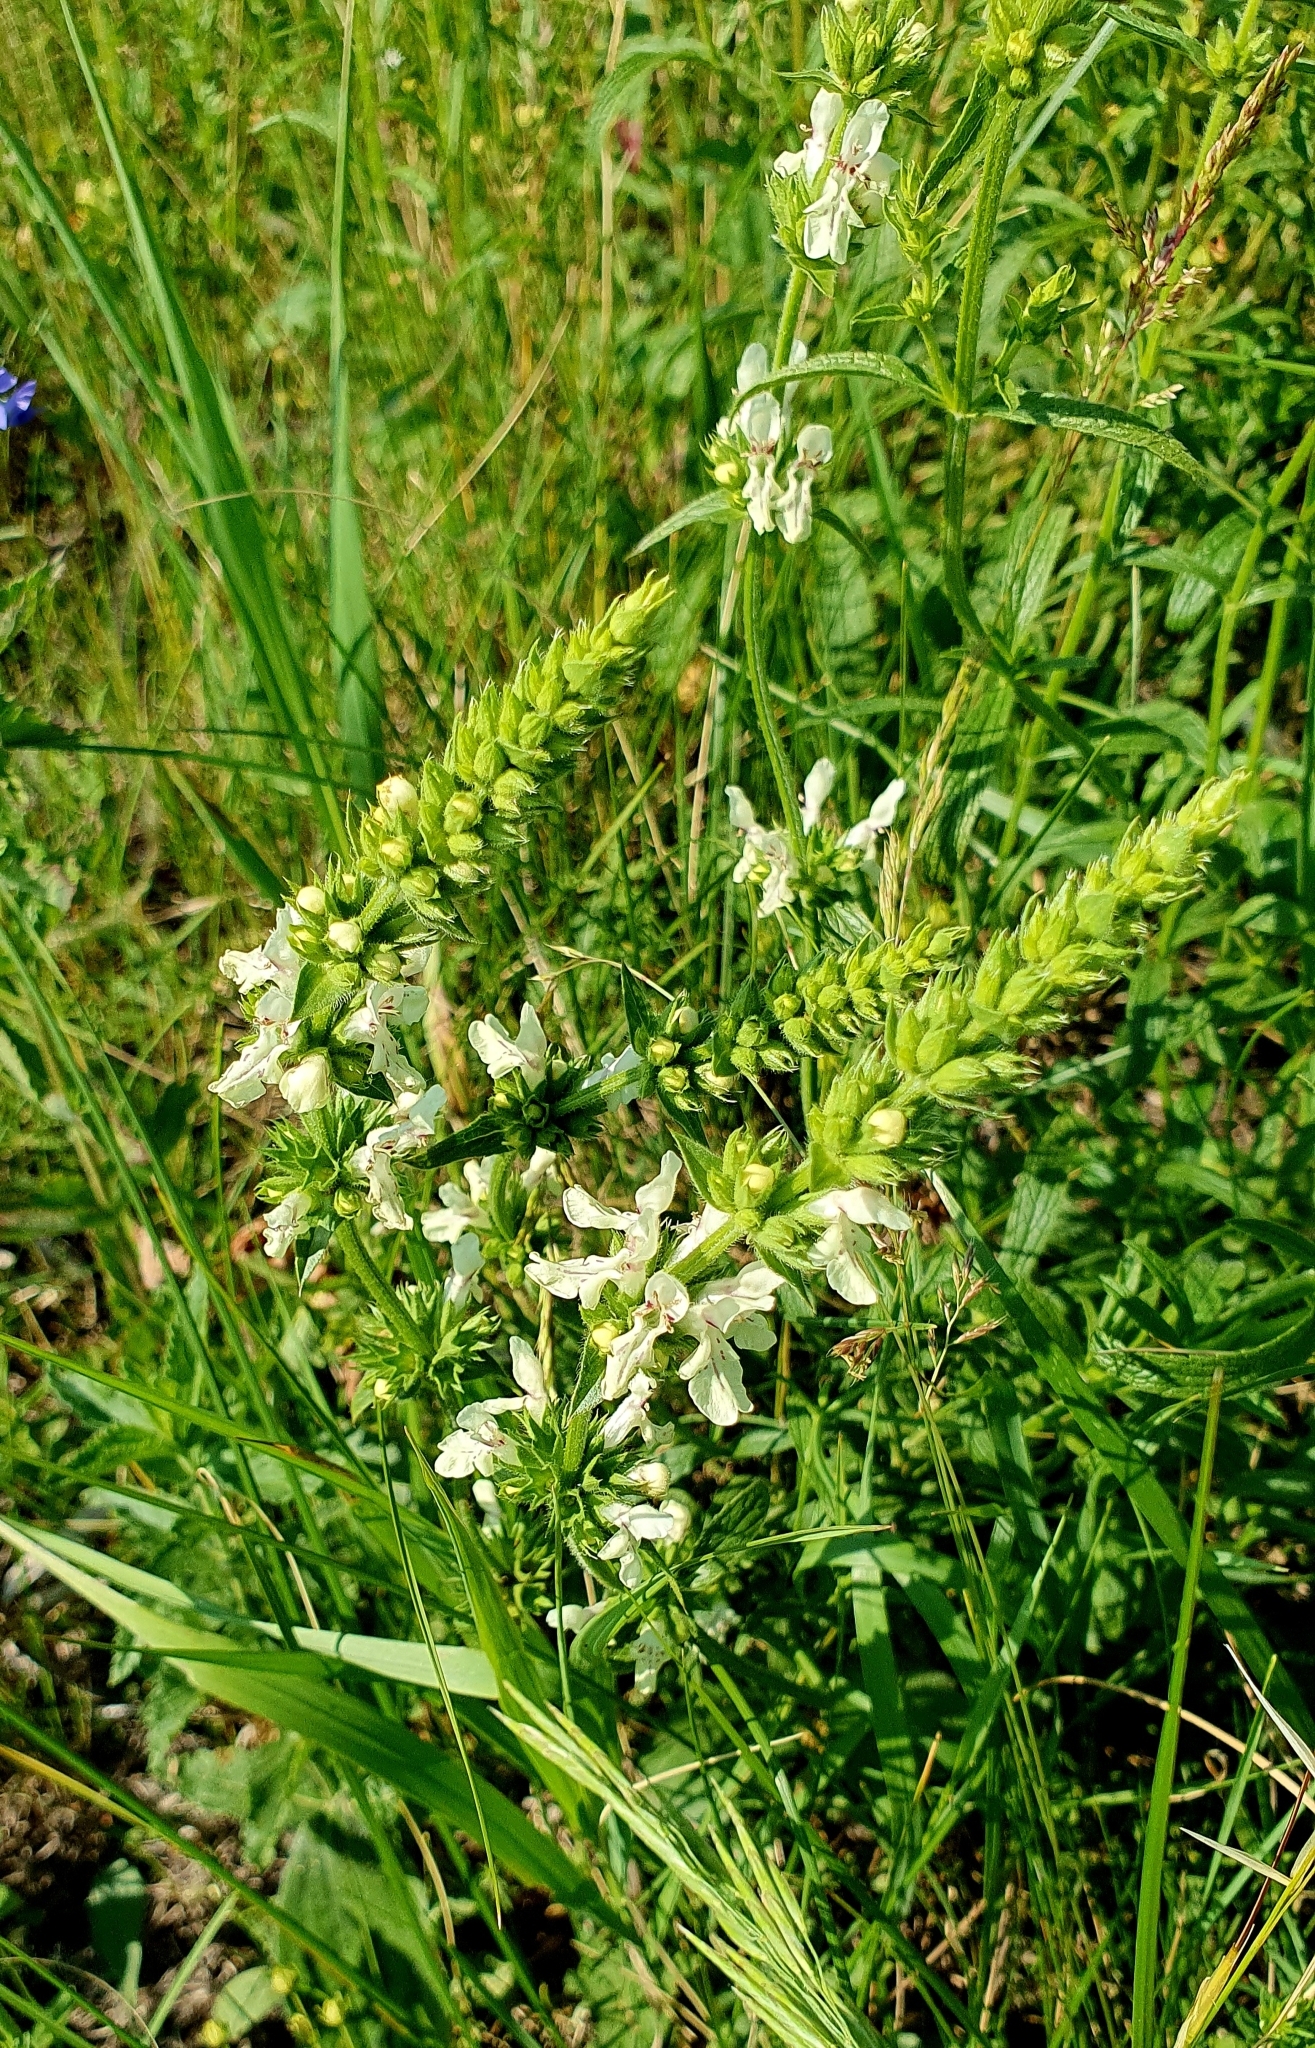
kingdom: Plantae
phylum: Tracheophyta
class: Magnoliopsida
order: Lamiales
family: Lamiaceae
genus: Stachys
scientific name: Stachys recta
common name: Perennial yellow-woundwort
